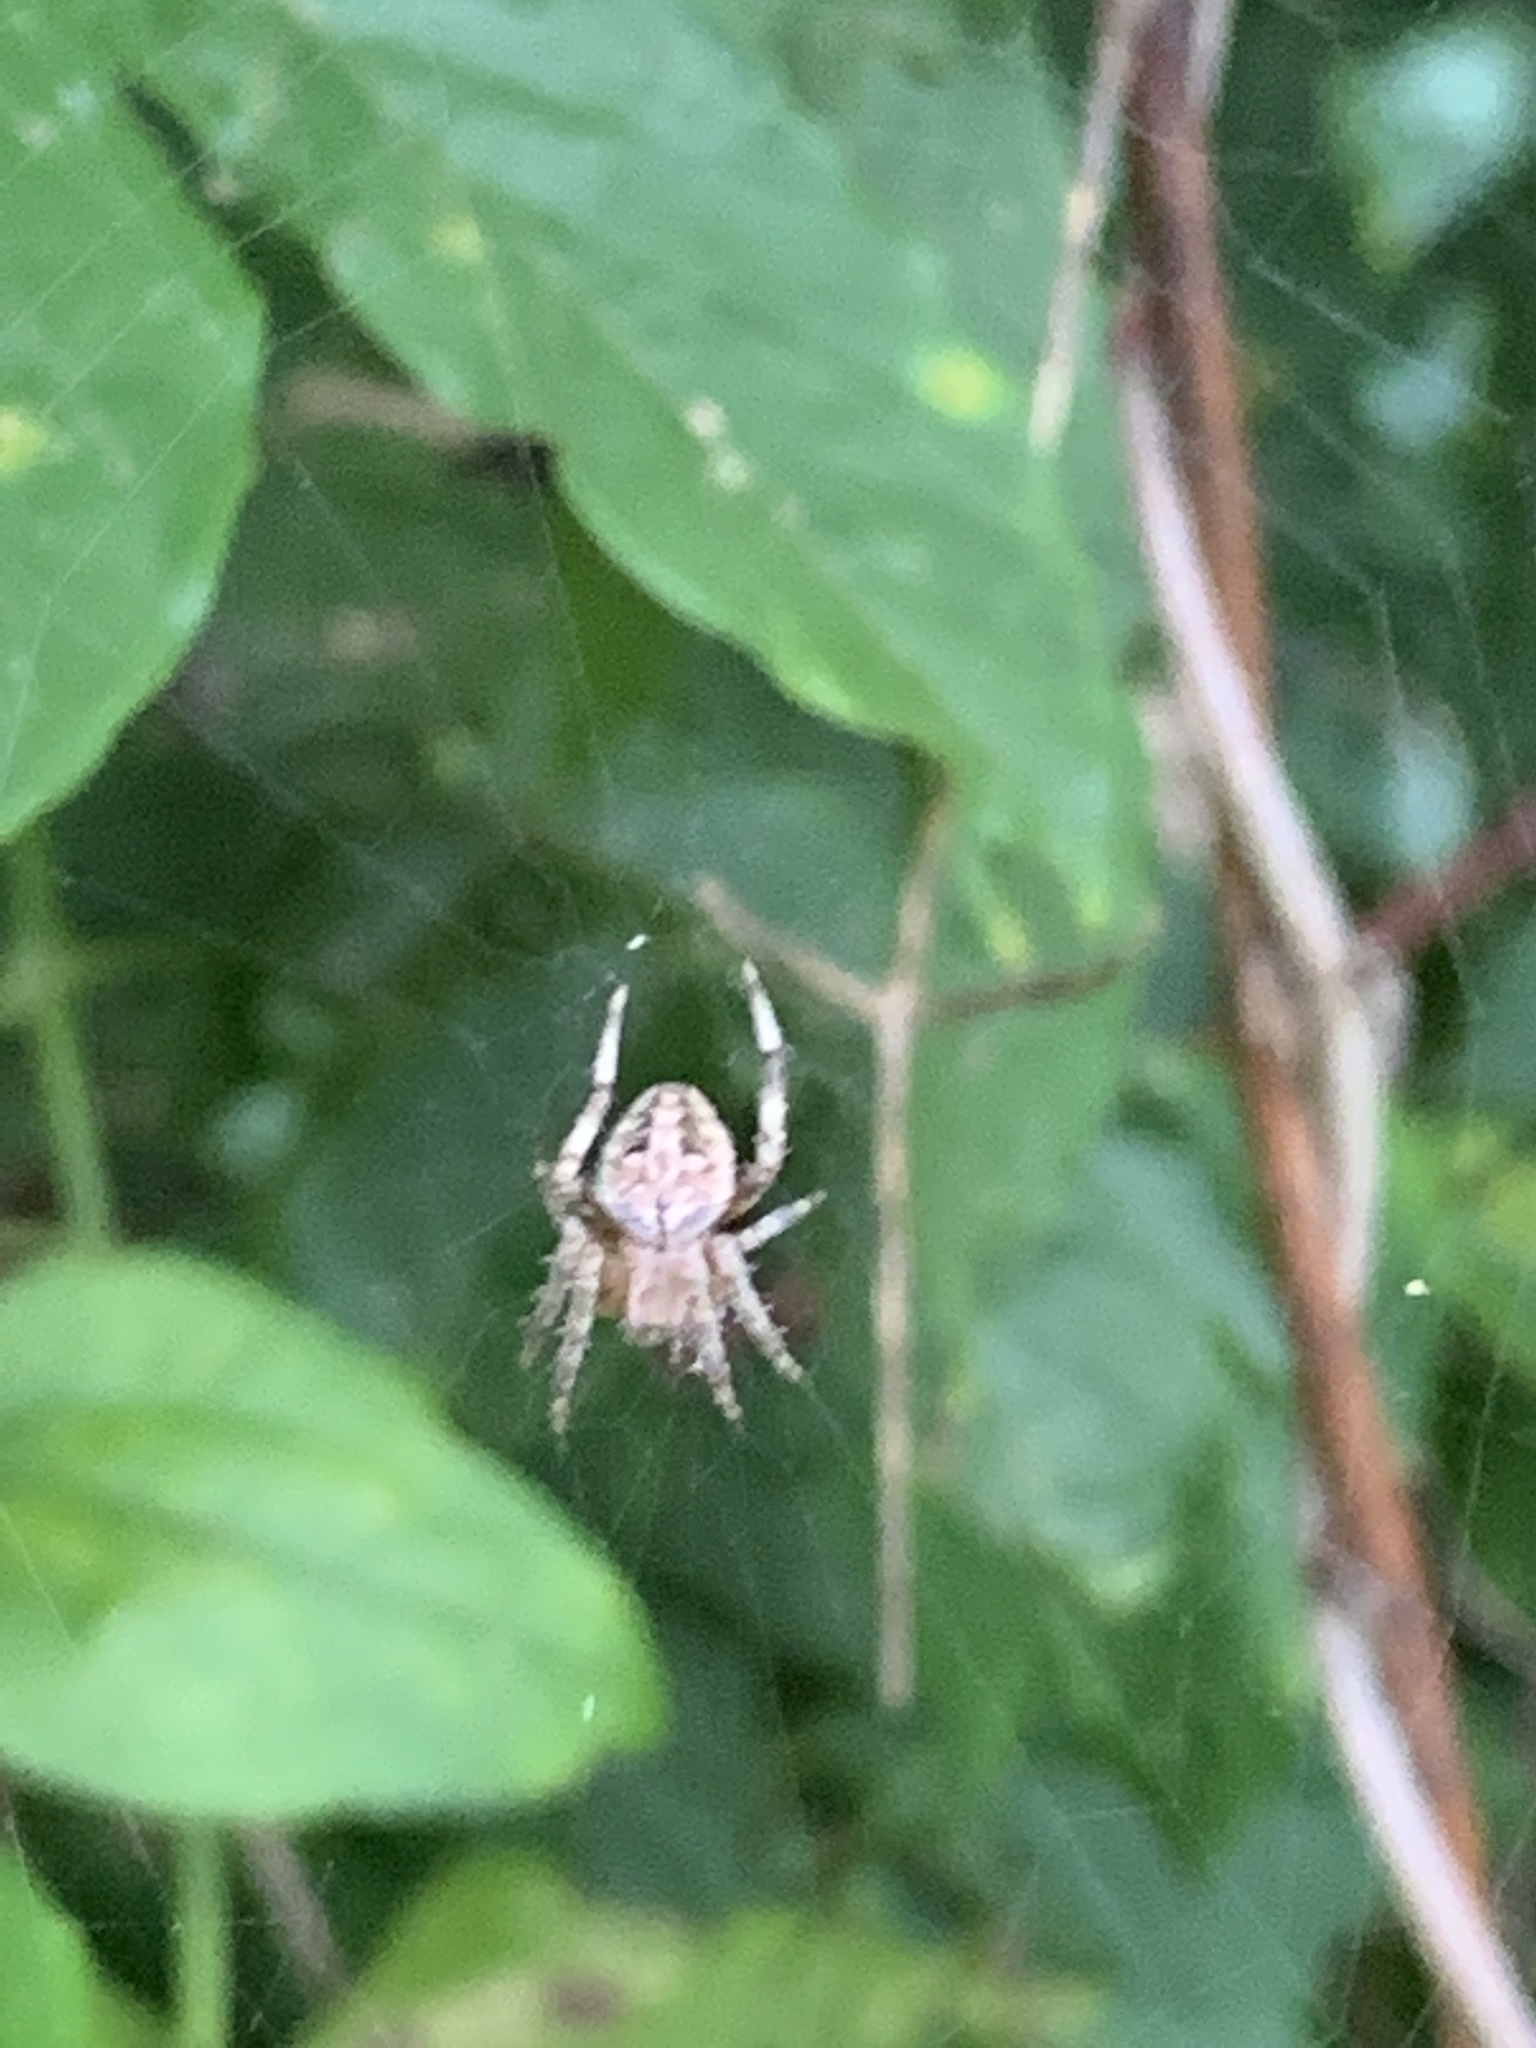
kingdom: Animalia
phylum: Arthropoda
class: Arachnida
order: Araneae
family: Araneidae
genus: Neoscona
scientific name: Neoscona arabesca
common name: Orb weavers
